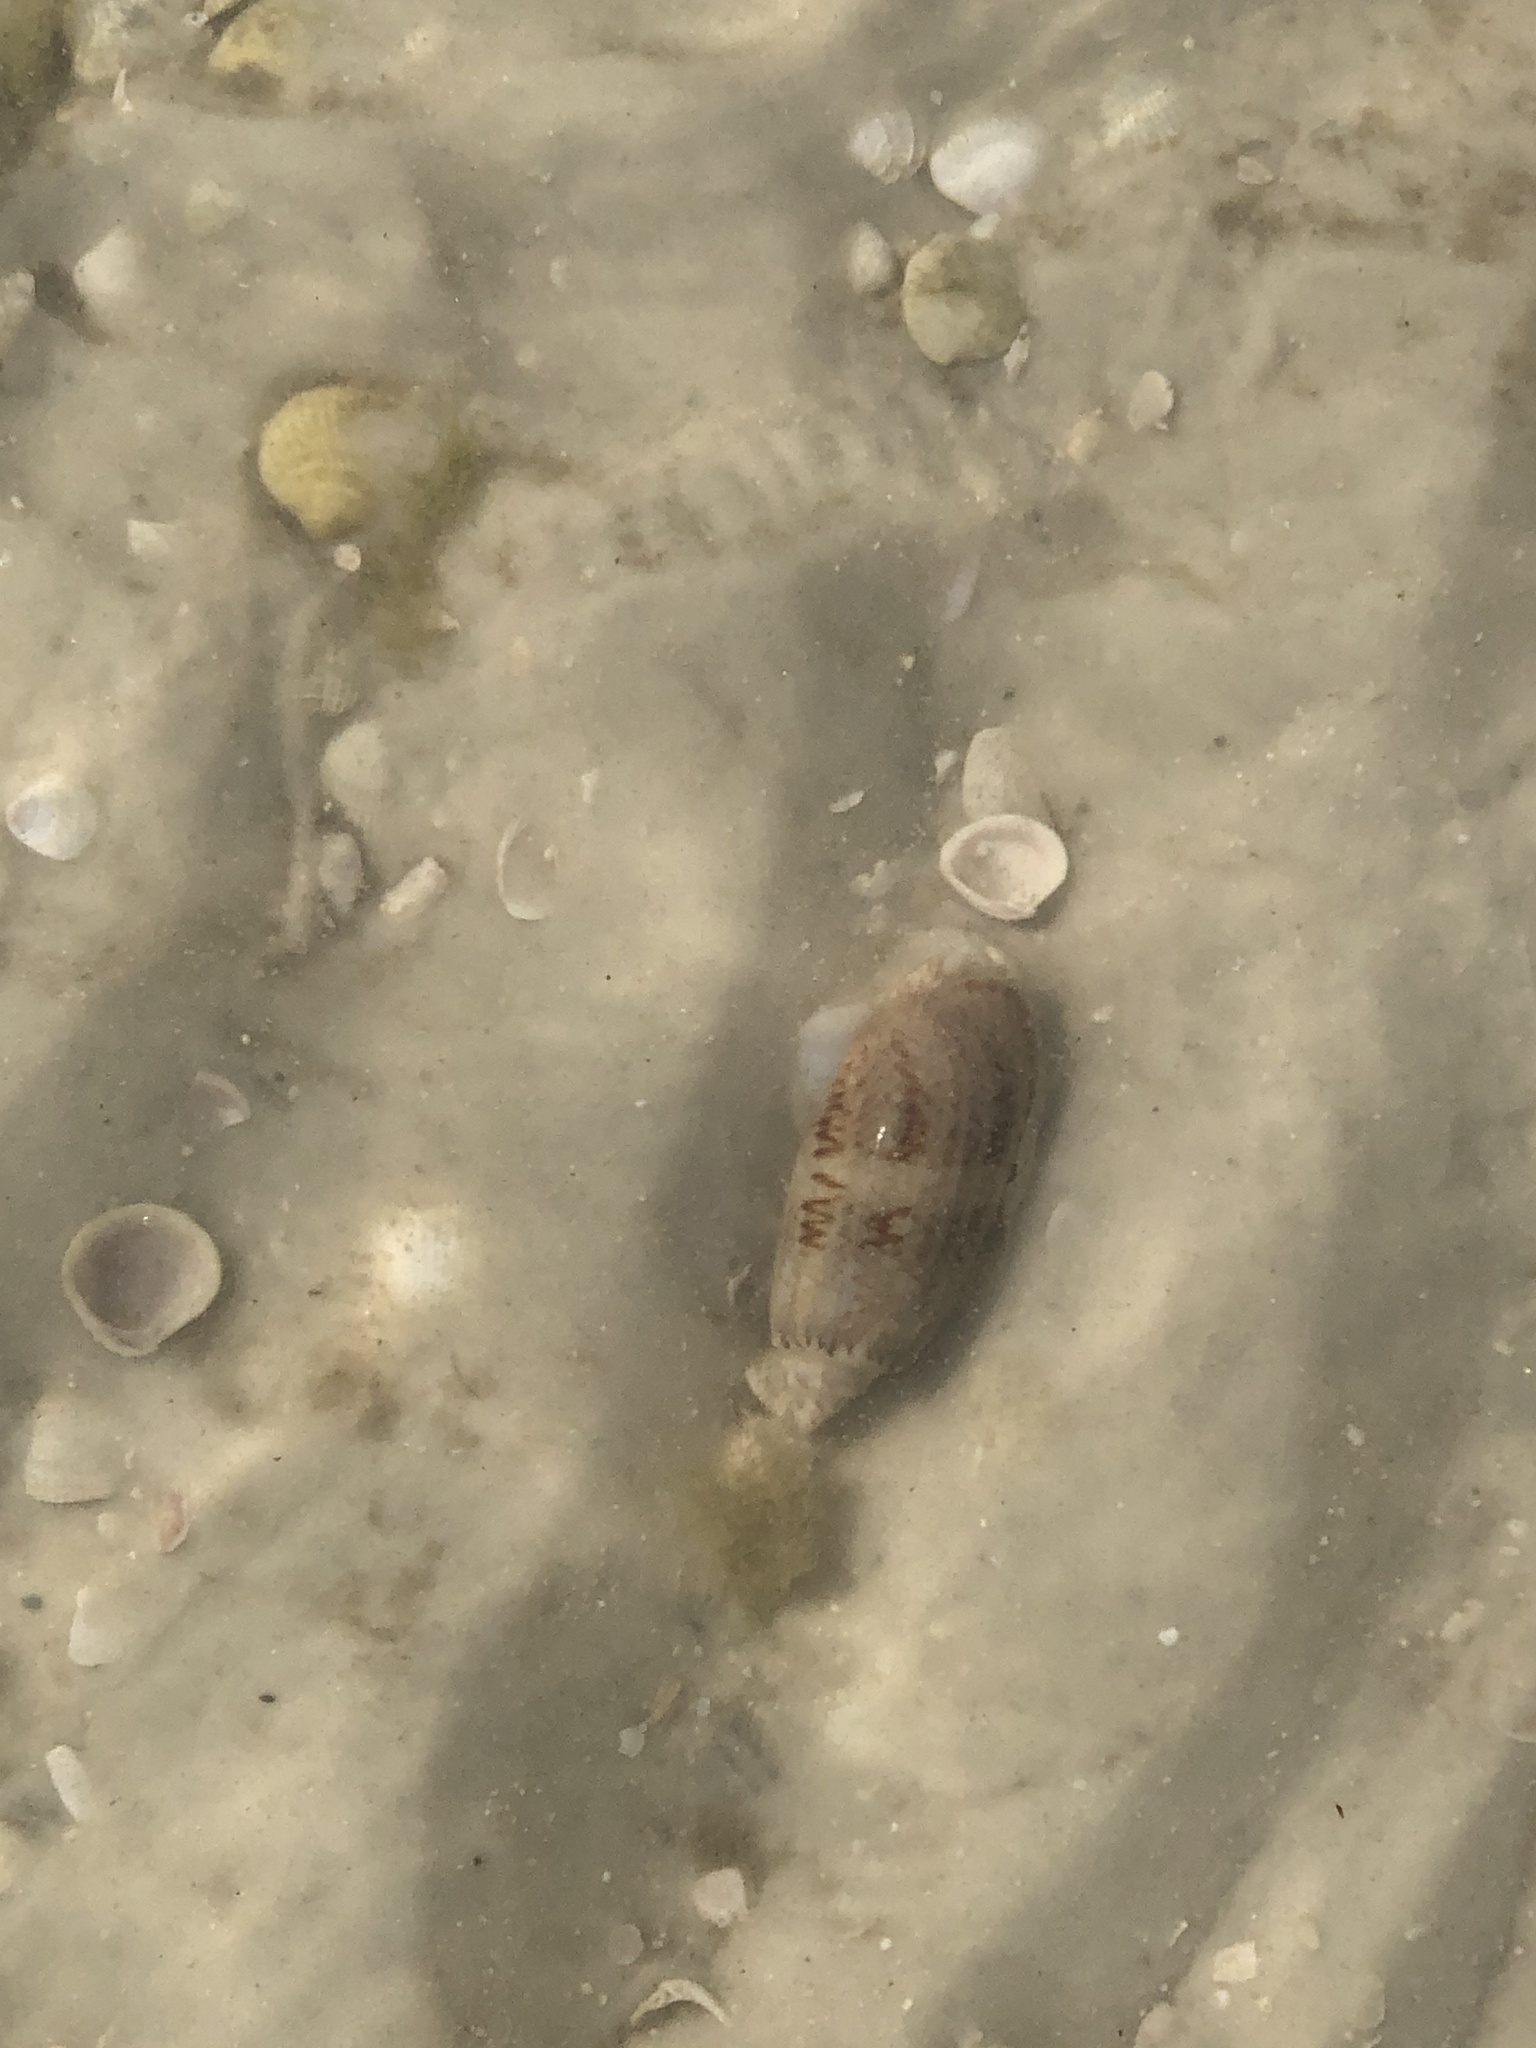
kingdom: Animalia
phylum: Mollusca
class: Gastropoda
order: Neogastropoda
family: Olividae
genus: Oliva
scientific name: Oliva sayana
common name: Lettered olive
